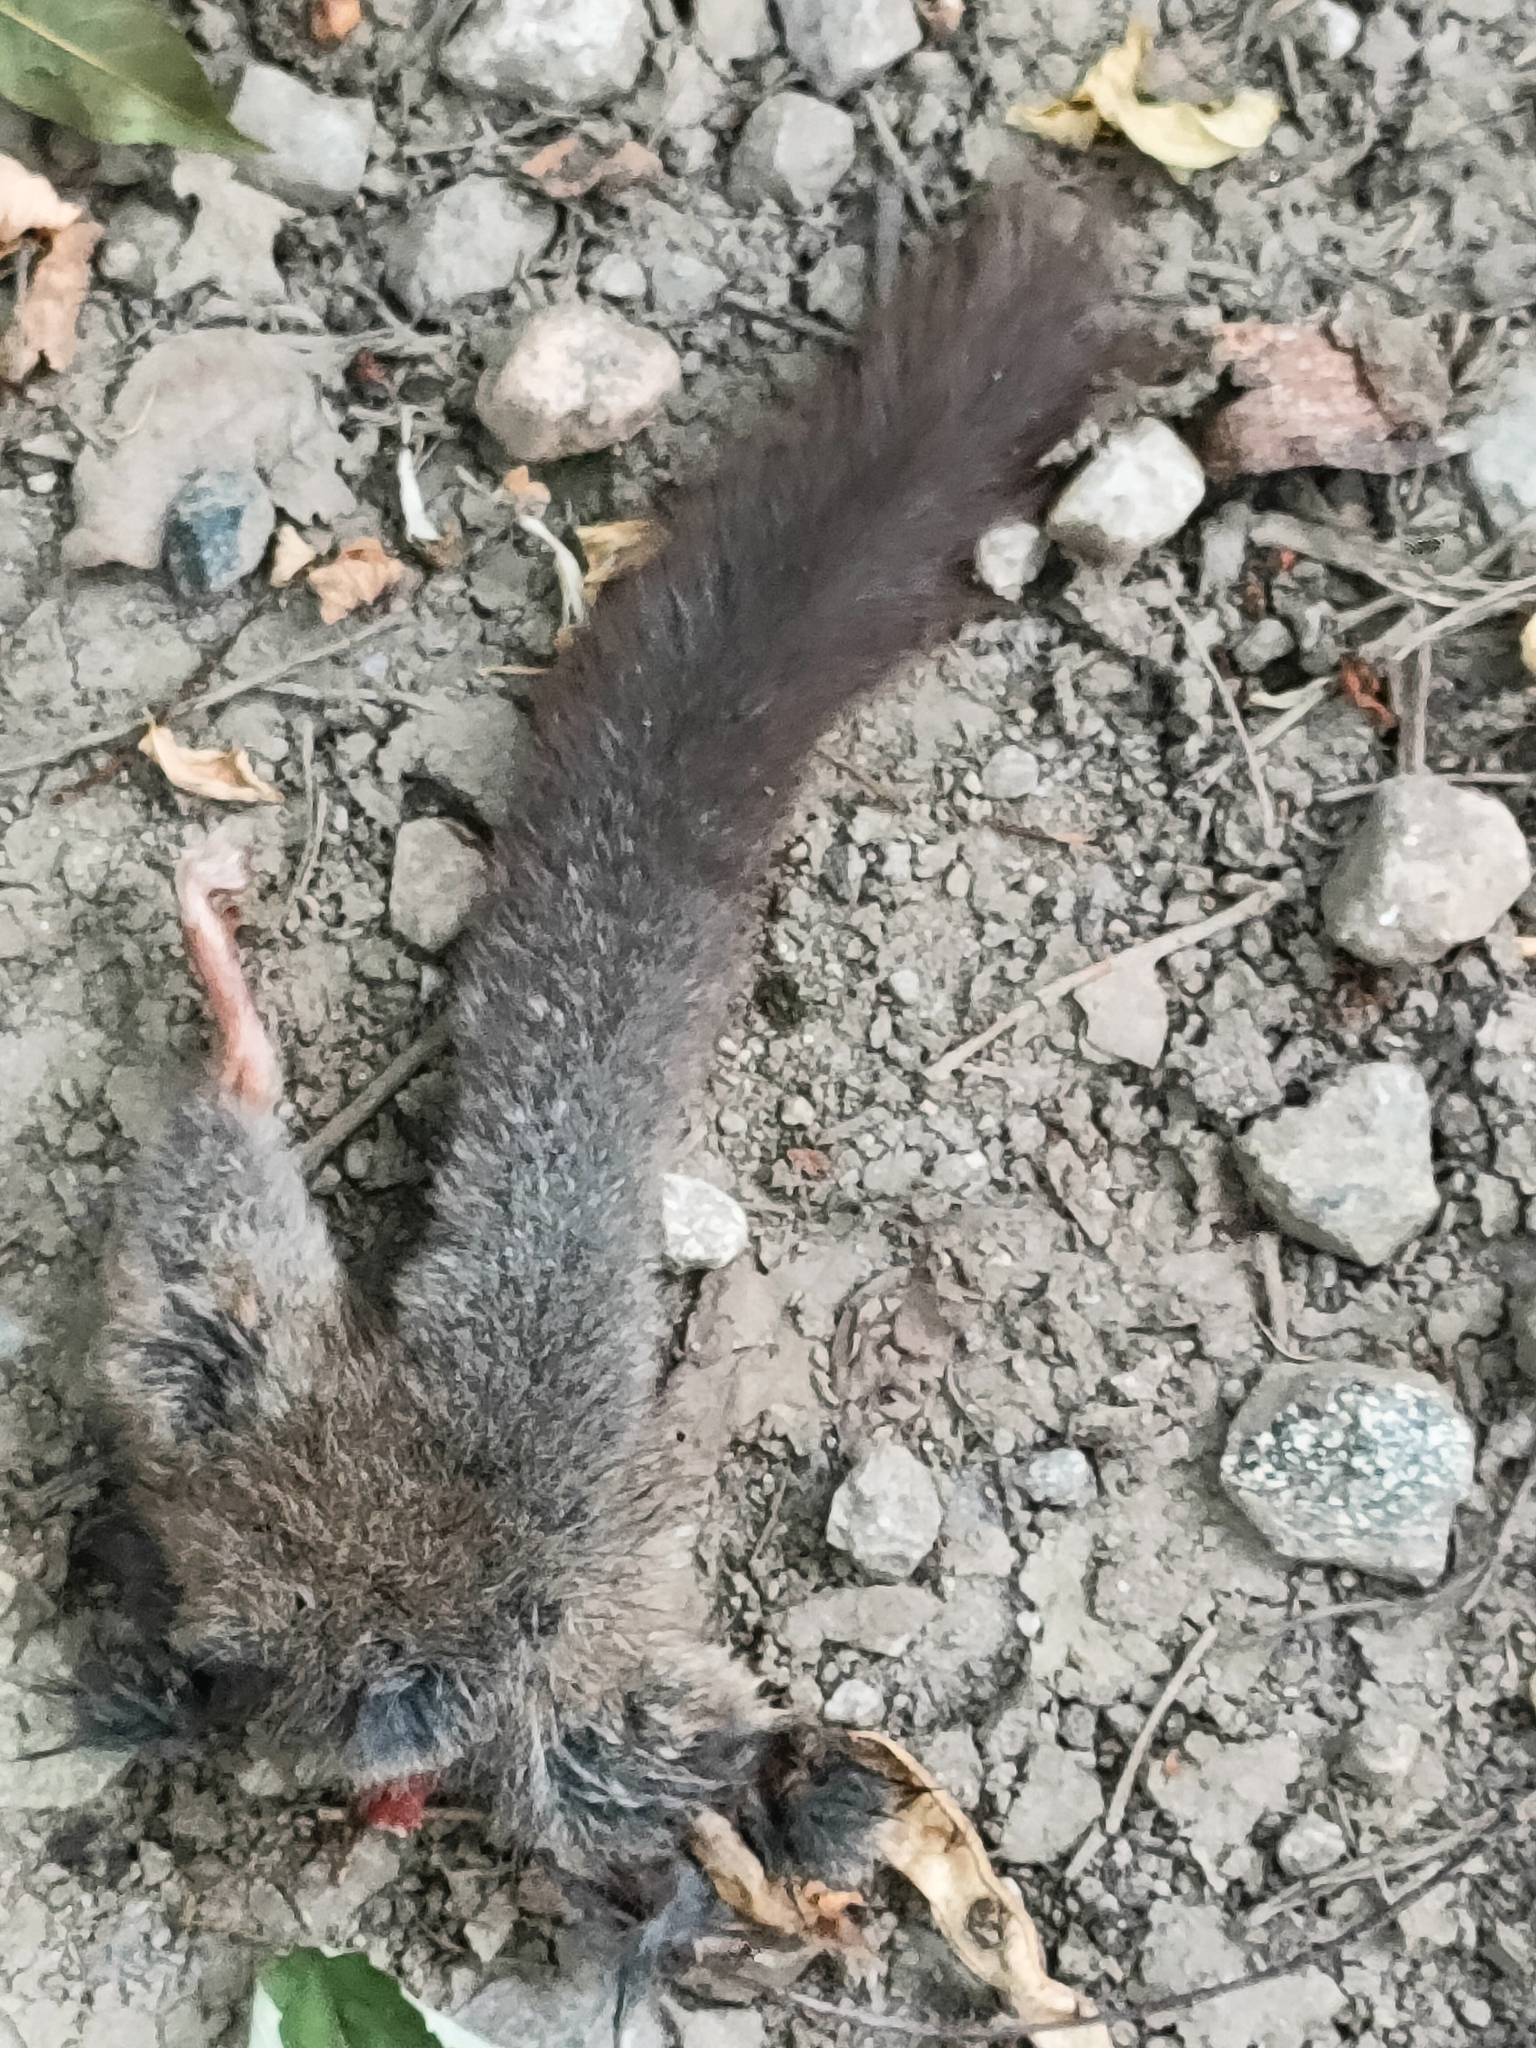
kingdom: Animalia
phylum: Chordata
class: Mammalia
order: Rodentia
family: Gliridae
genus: Glis
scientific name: Glis glis
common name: Fat dormouse
